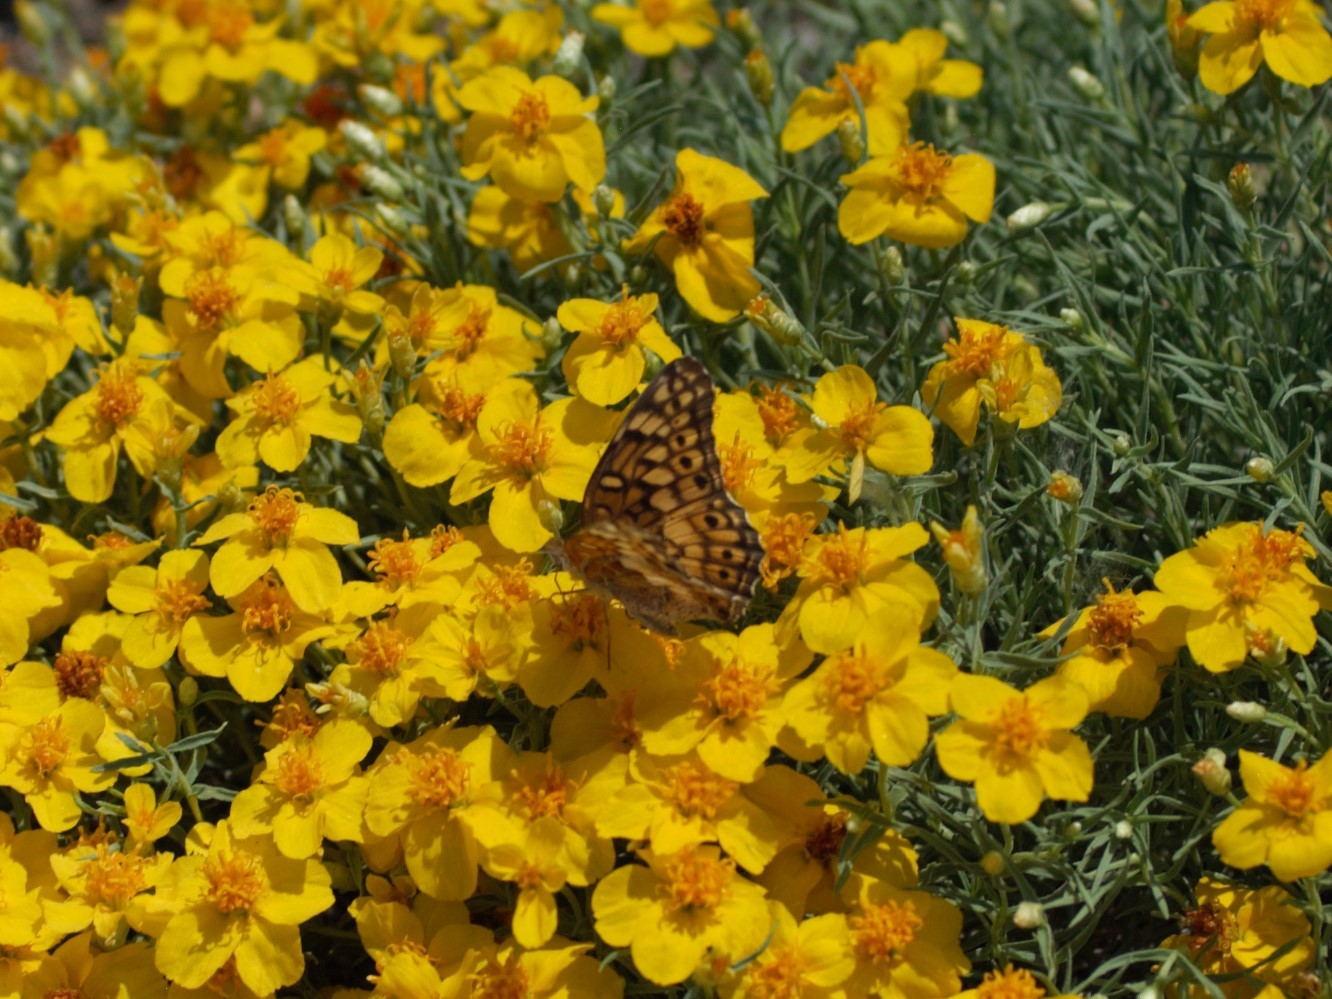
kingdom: Animalia
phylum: Arthropoda
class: Insecta
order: Lepidoptera
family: Nymphalidae
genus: Euptoieta
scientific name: Euptoieta claudia
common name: Variegated fritillary
